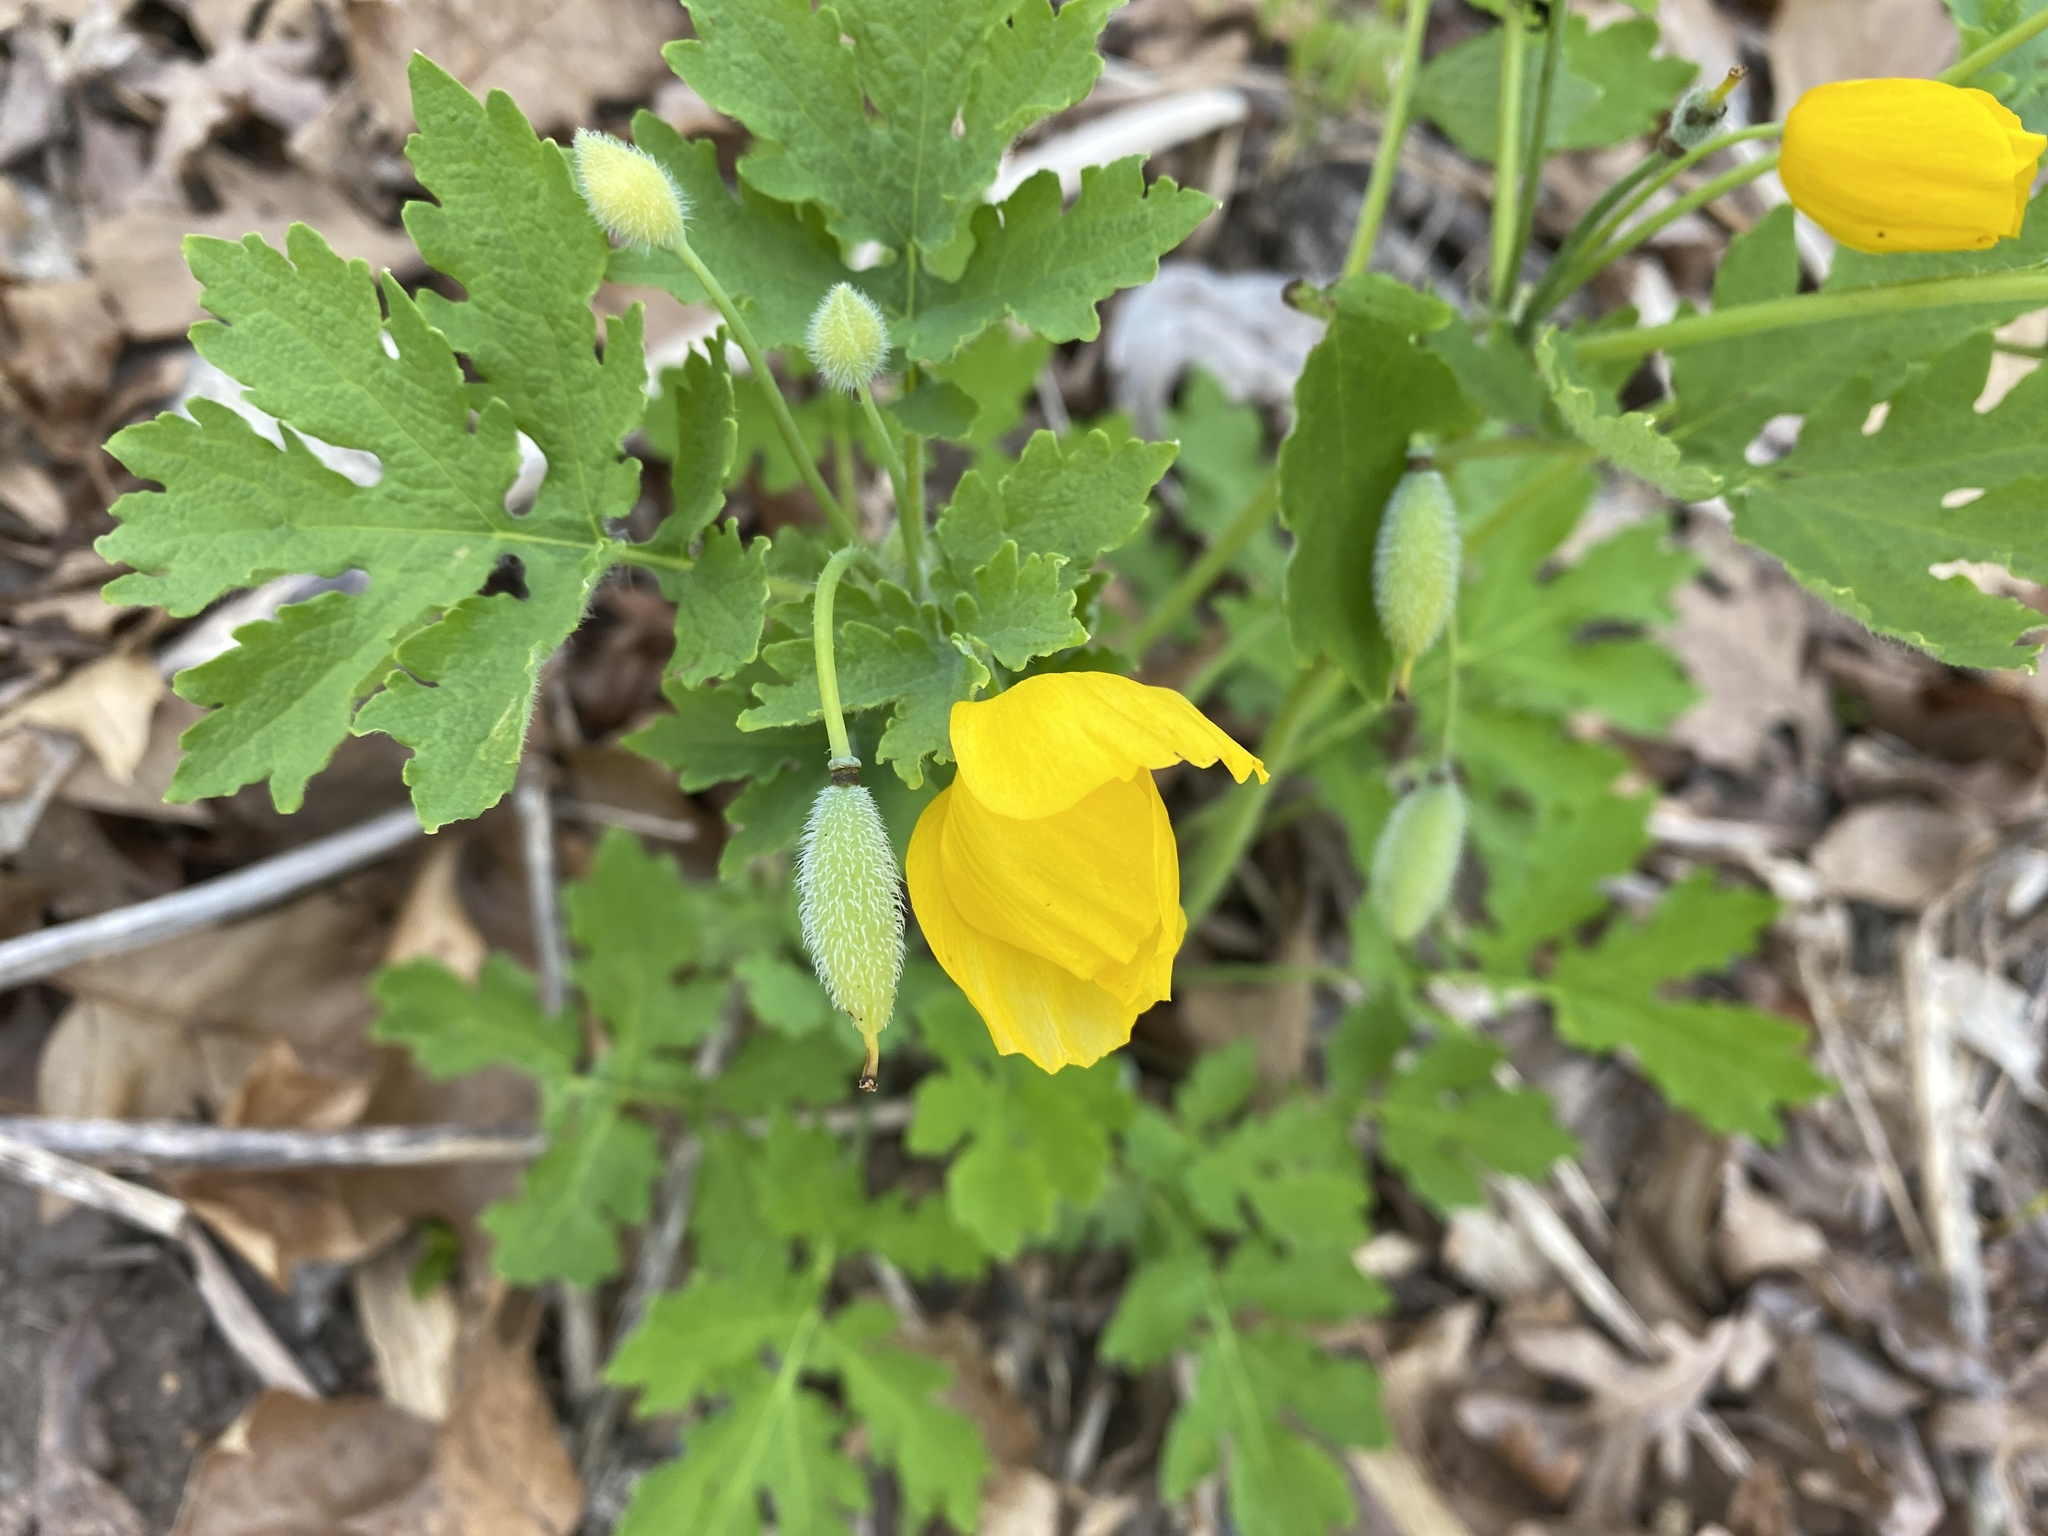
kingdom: Plantae
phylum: Tracheophyta
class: Magnoliopsida
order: Ranunculales
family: Papaveraceae
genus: Stylophorum
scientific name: Stylophorum diphyllum
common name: Celandine poppy
